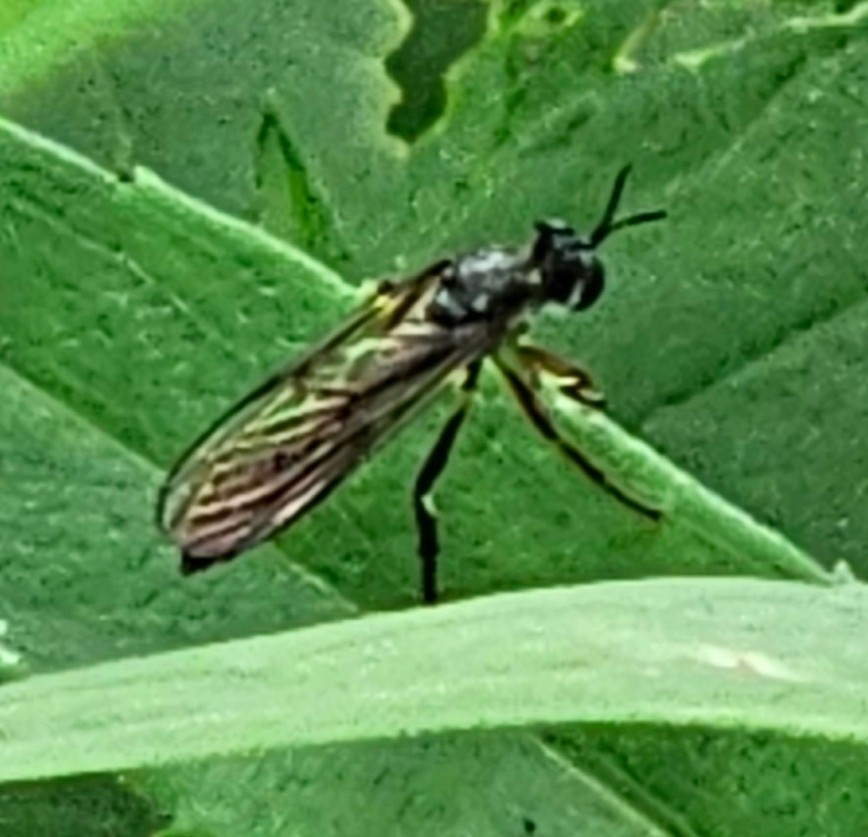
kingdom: Animalia
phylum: Arthropoda
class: Insecta
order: Diptera
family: Asilidae
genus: Dioctria
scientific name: Dioctria hyalipennis
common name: Stripe-legged robberfly
